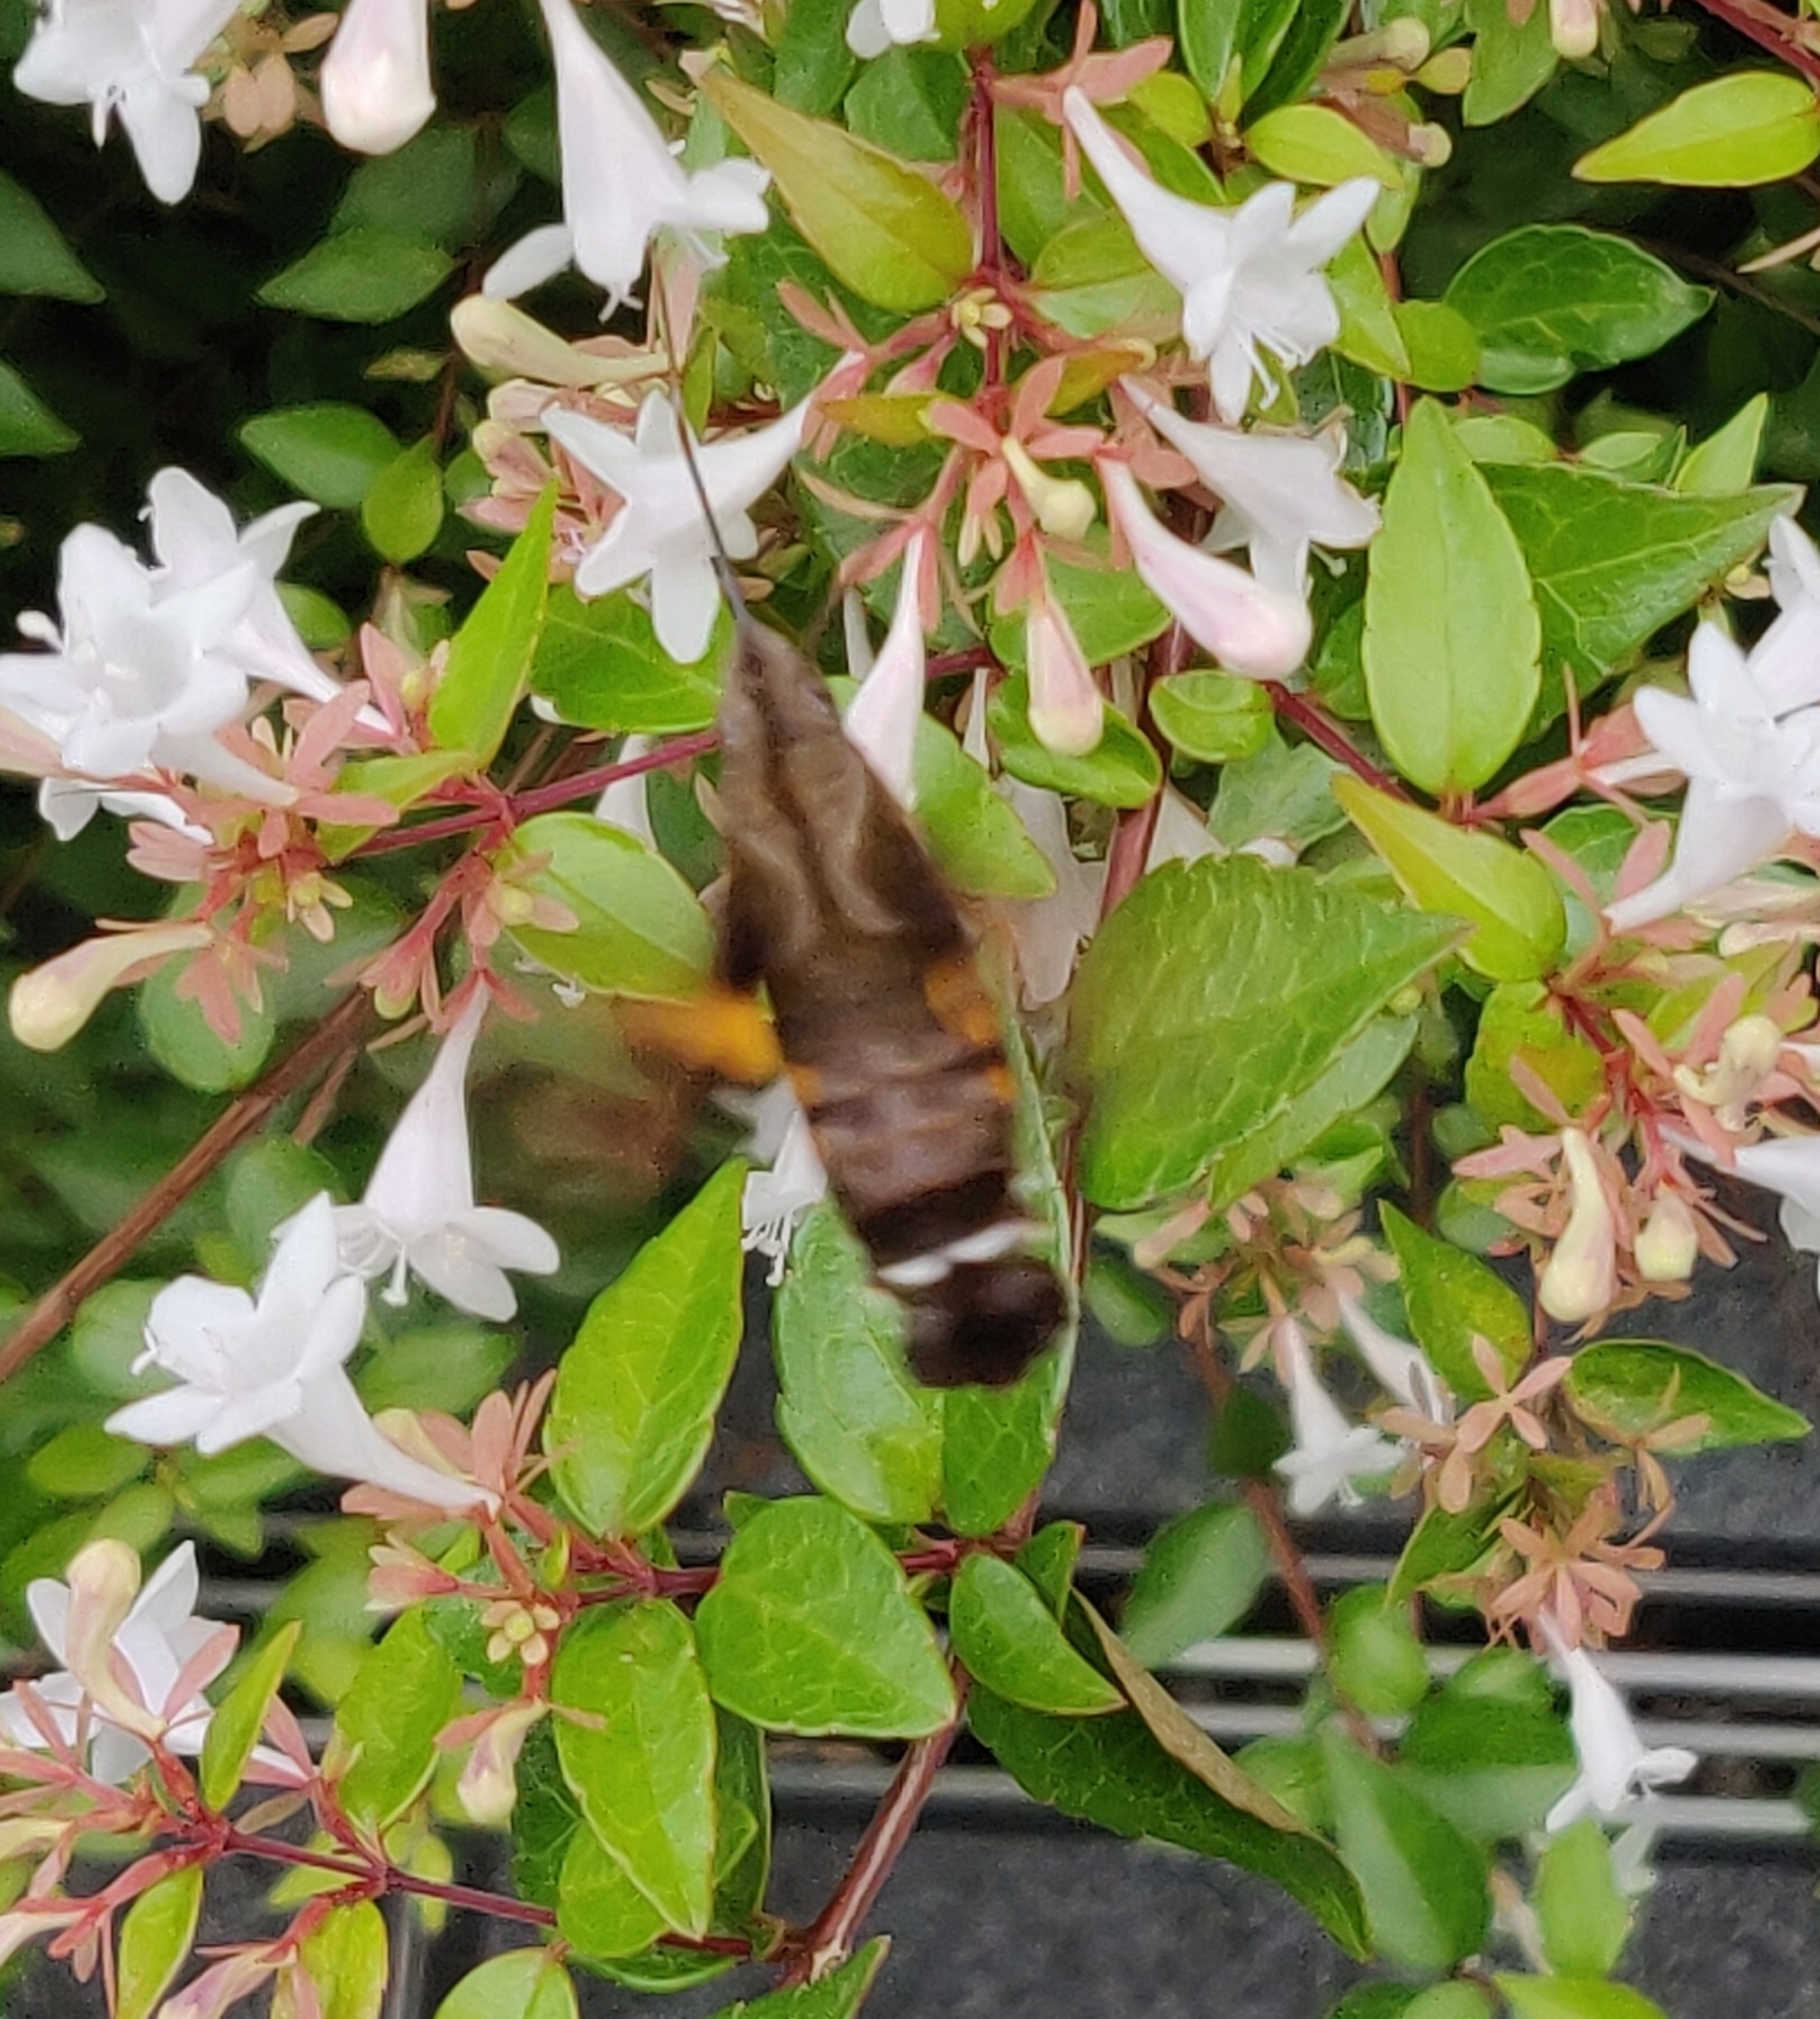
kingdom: Animalia
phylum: Arthropoda
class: Insecta
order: Lepidoptera
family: Sphingidae
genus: Macroglossum
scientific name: Macroglossum pyrrhosticta
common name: Hummingbird hawk moth
